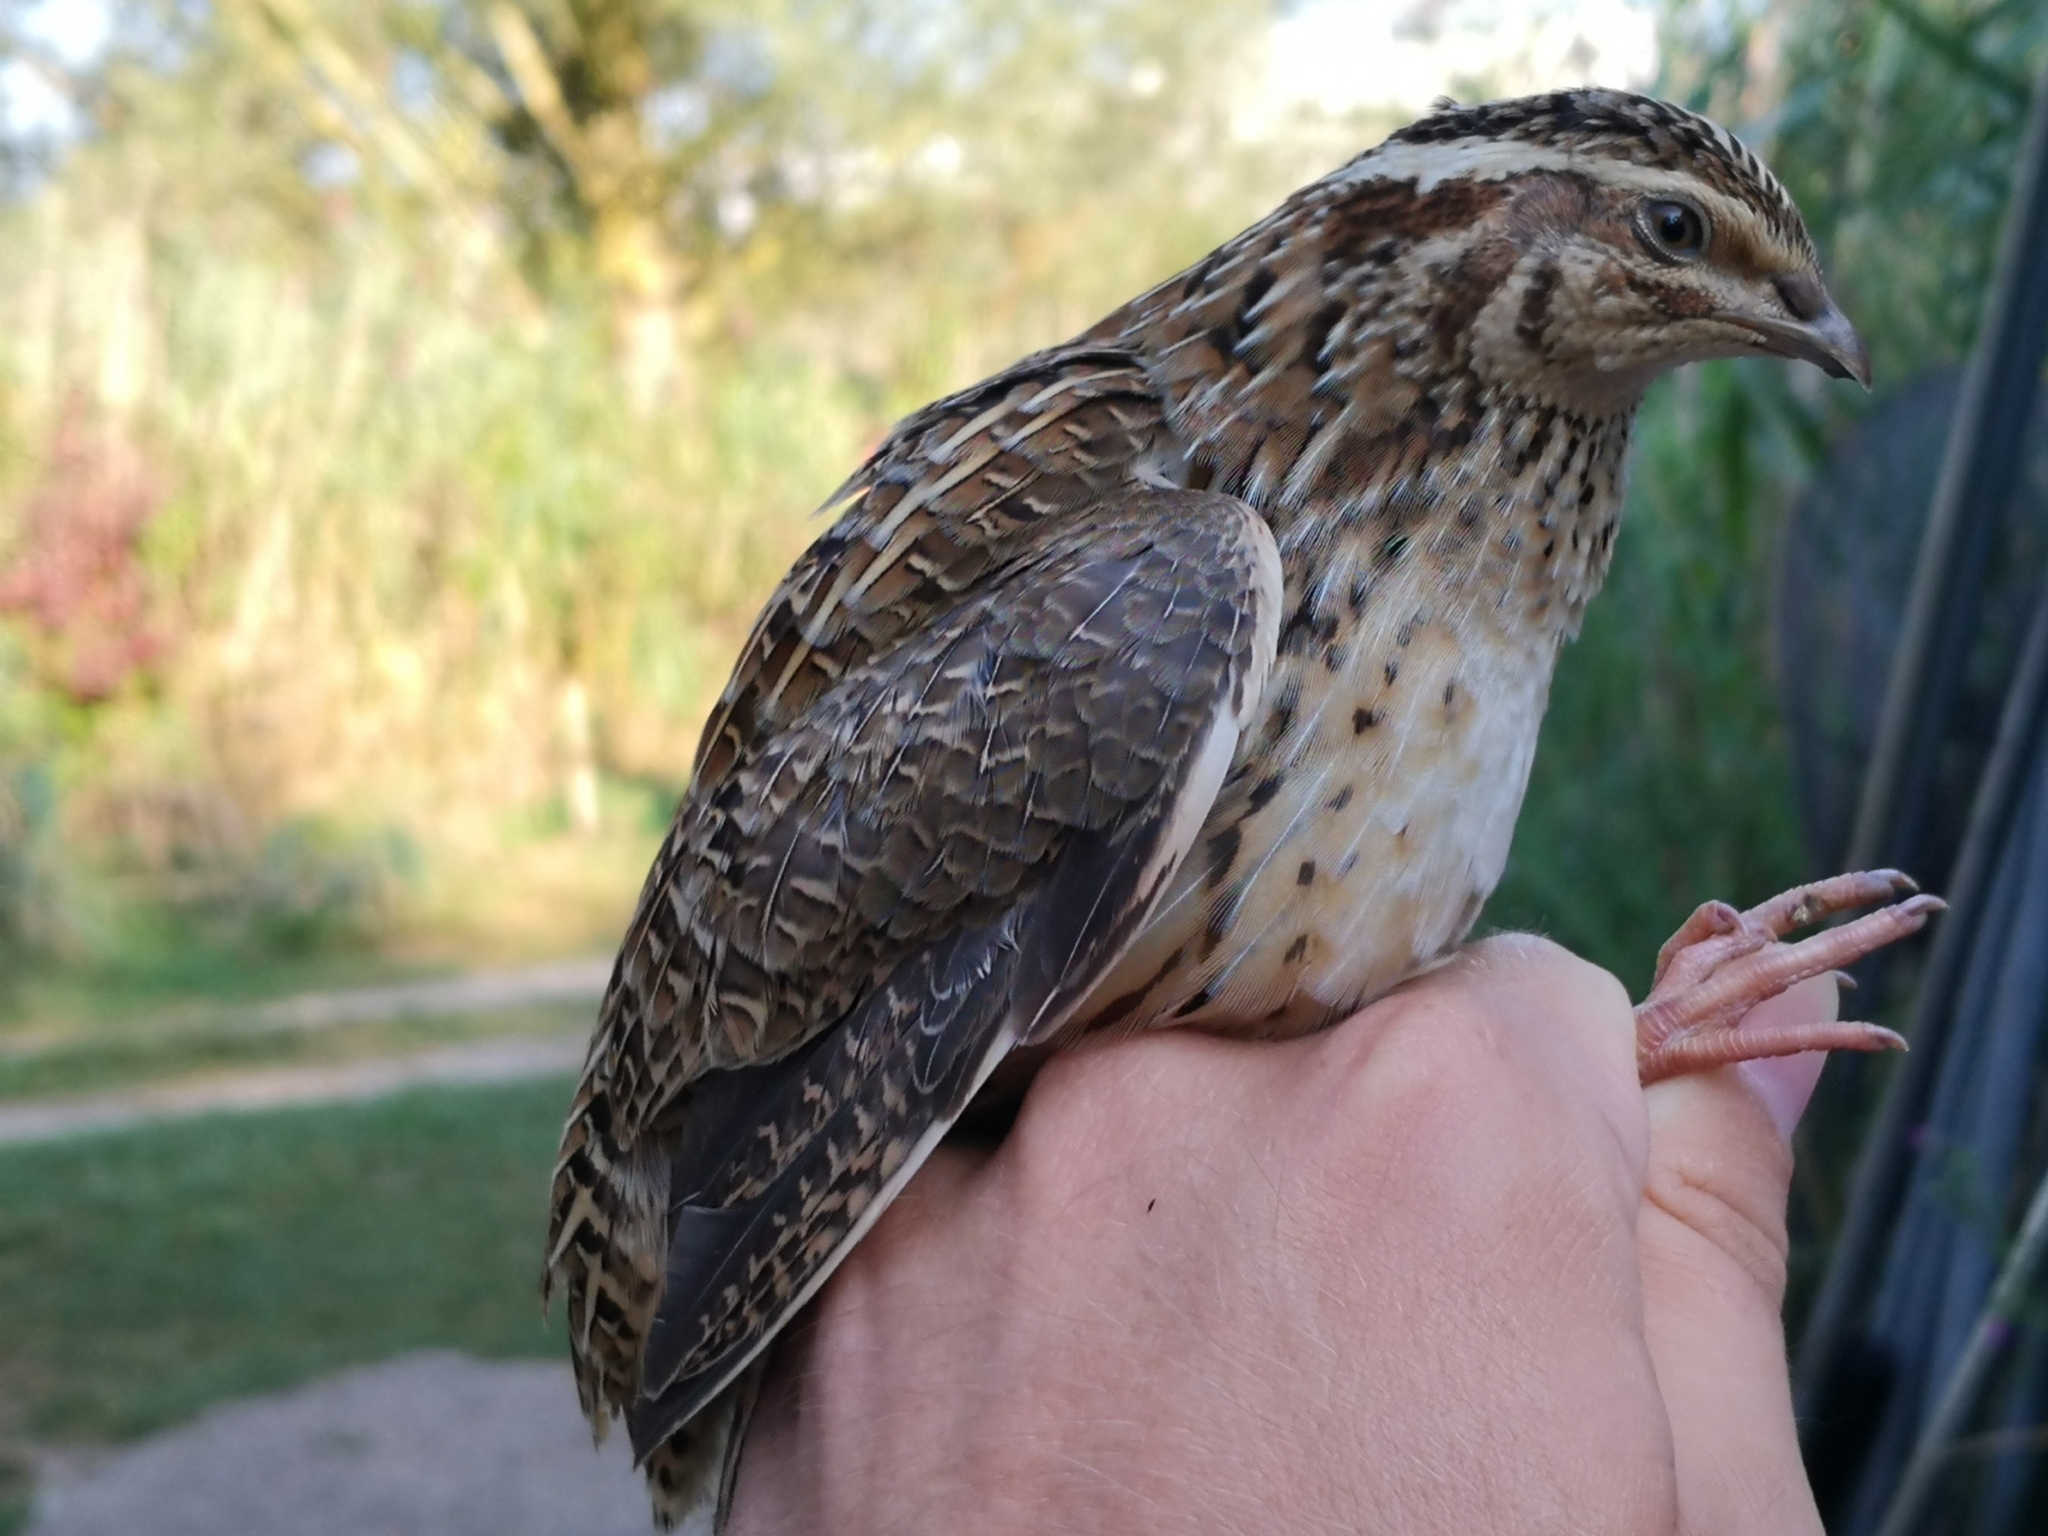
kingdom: Animalia
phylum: Chordata
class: Aves
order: Galliformes
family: Phasianidae
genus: Coturnix
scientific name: Coturnix coturnix
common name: Common quail
